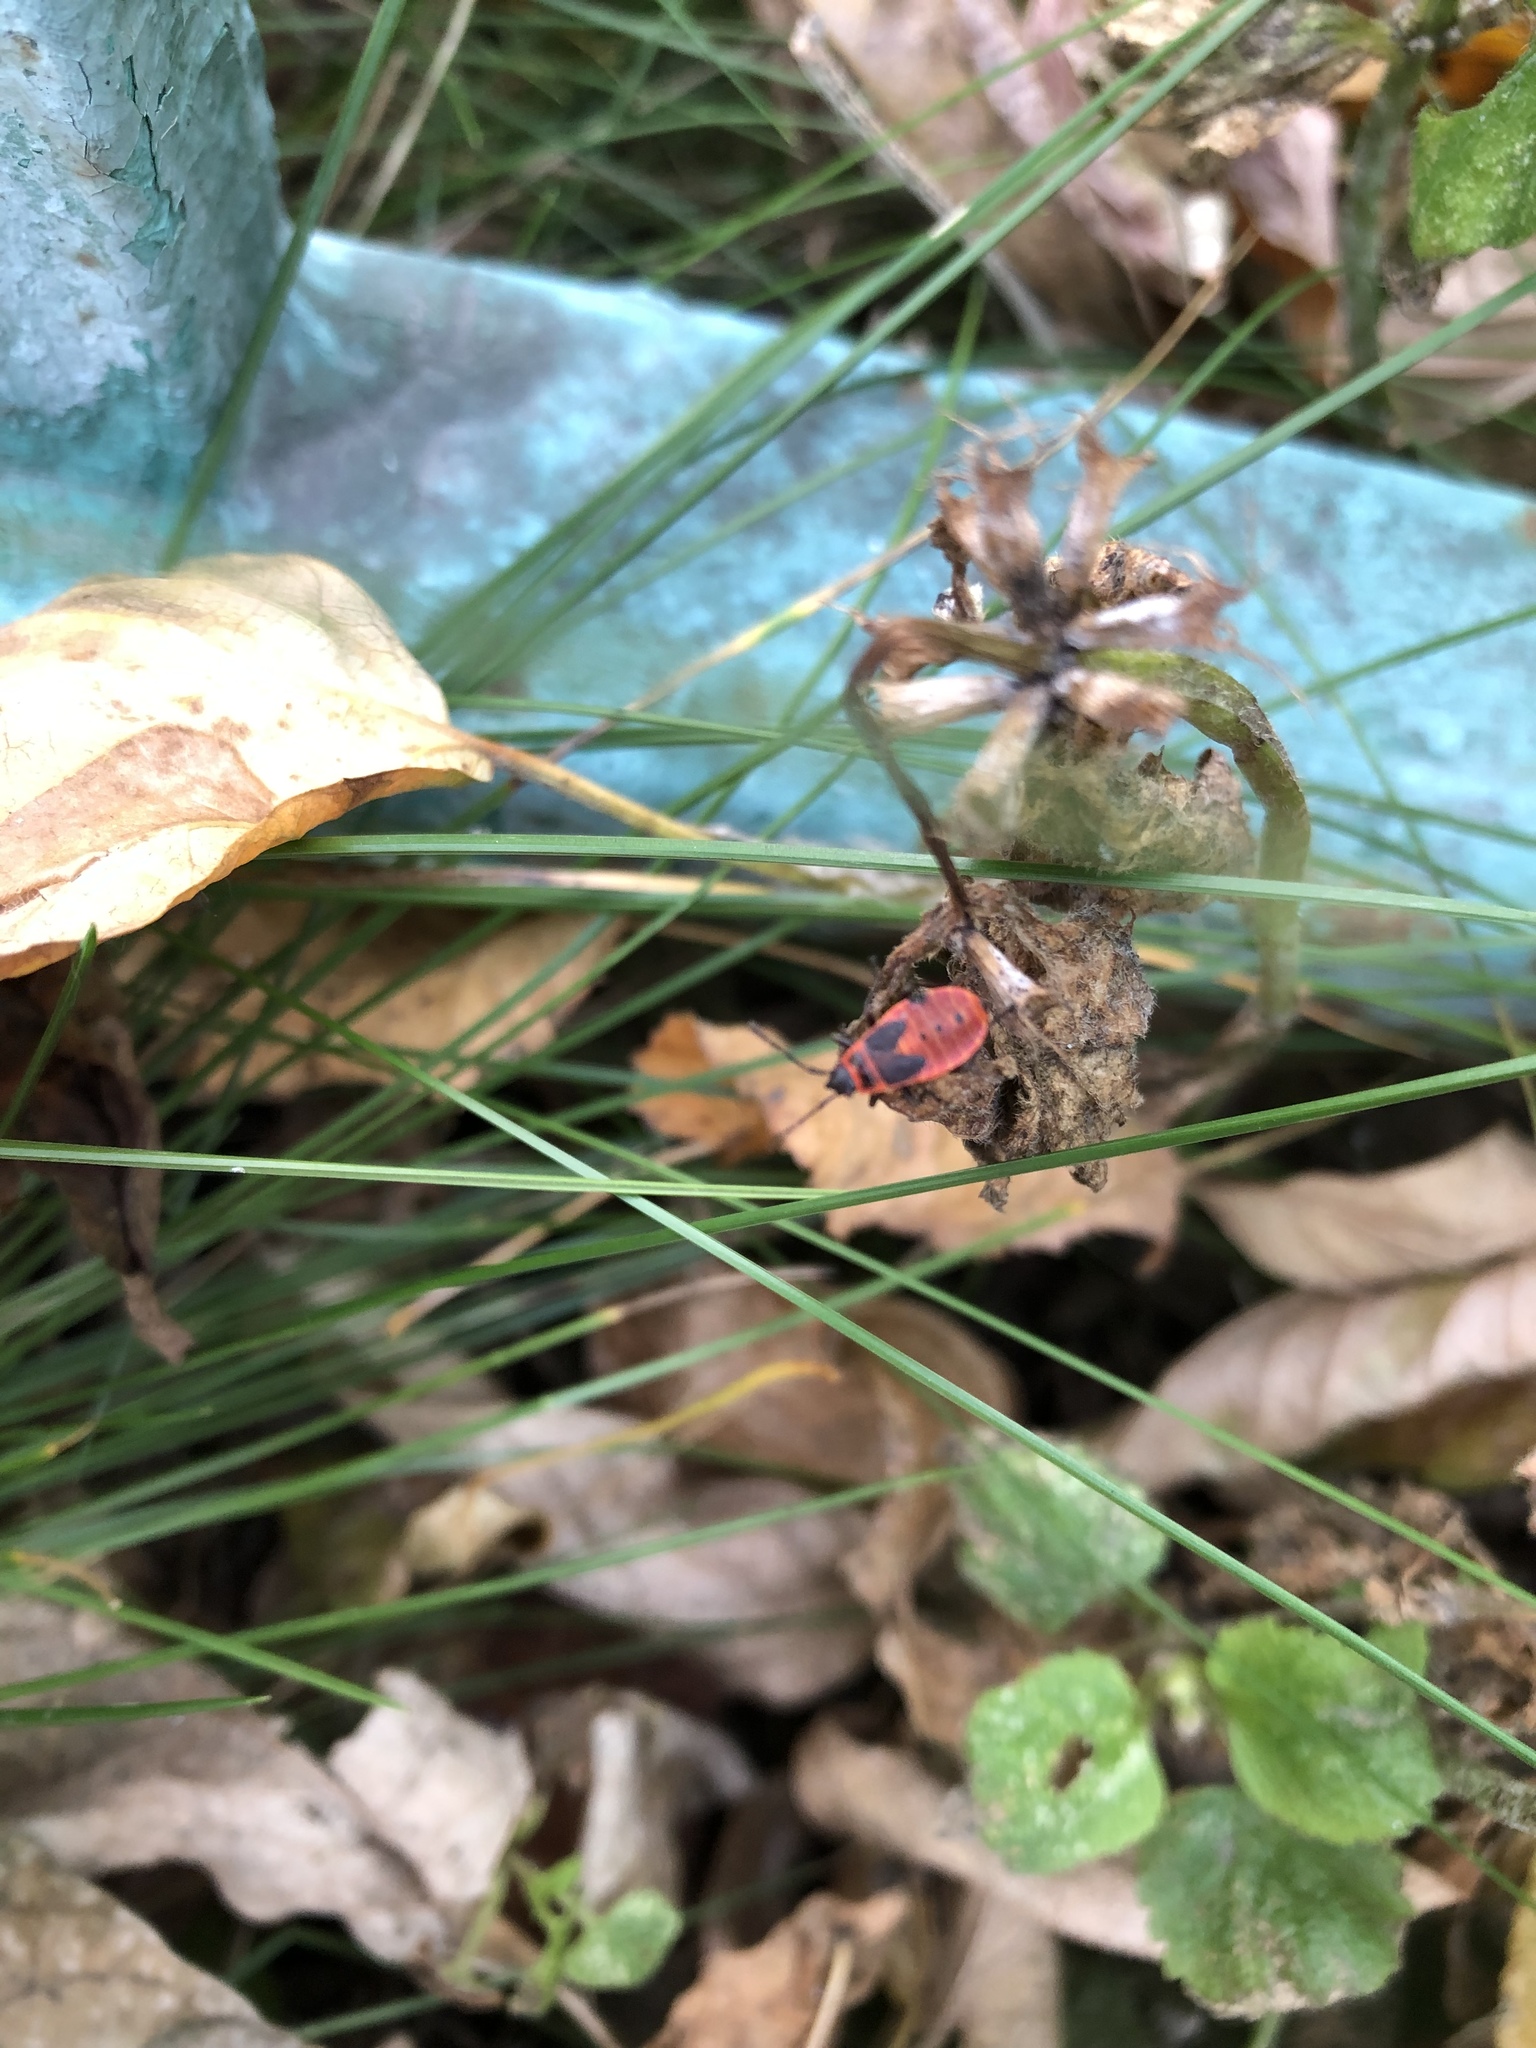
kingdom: Animalia
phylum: Arthropoda
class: Insecta
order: Hemiptera
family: Pyrrhocoridae
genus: Pyrrhocoris
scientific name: Pyrrhocoris apterus
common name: Firebug
